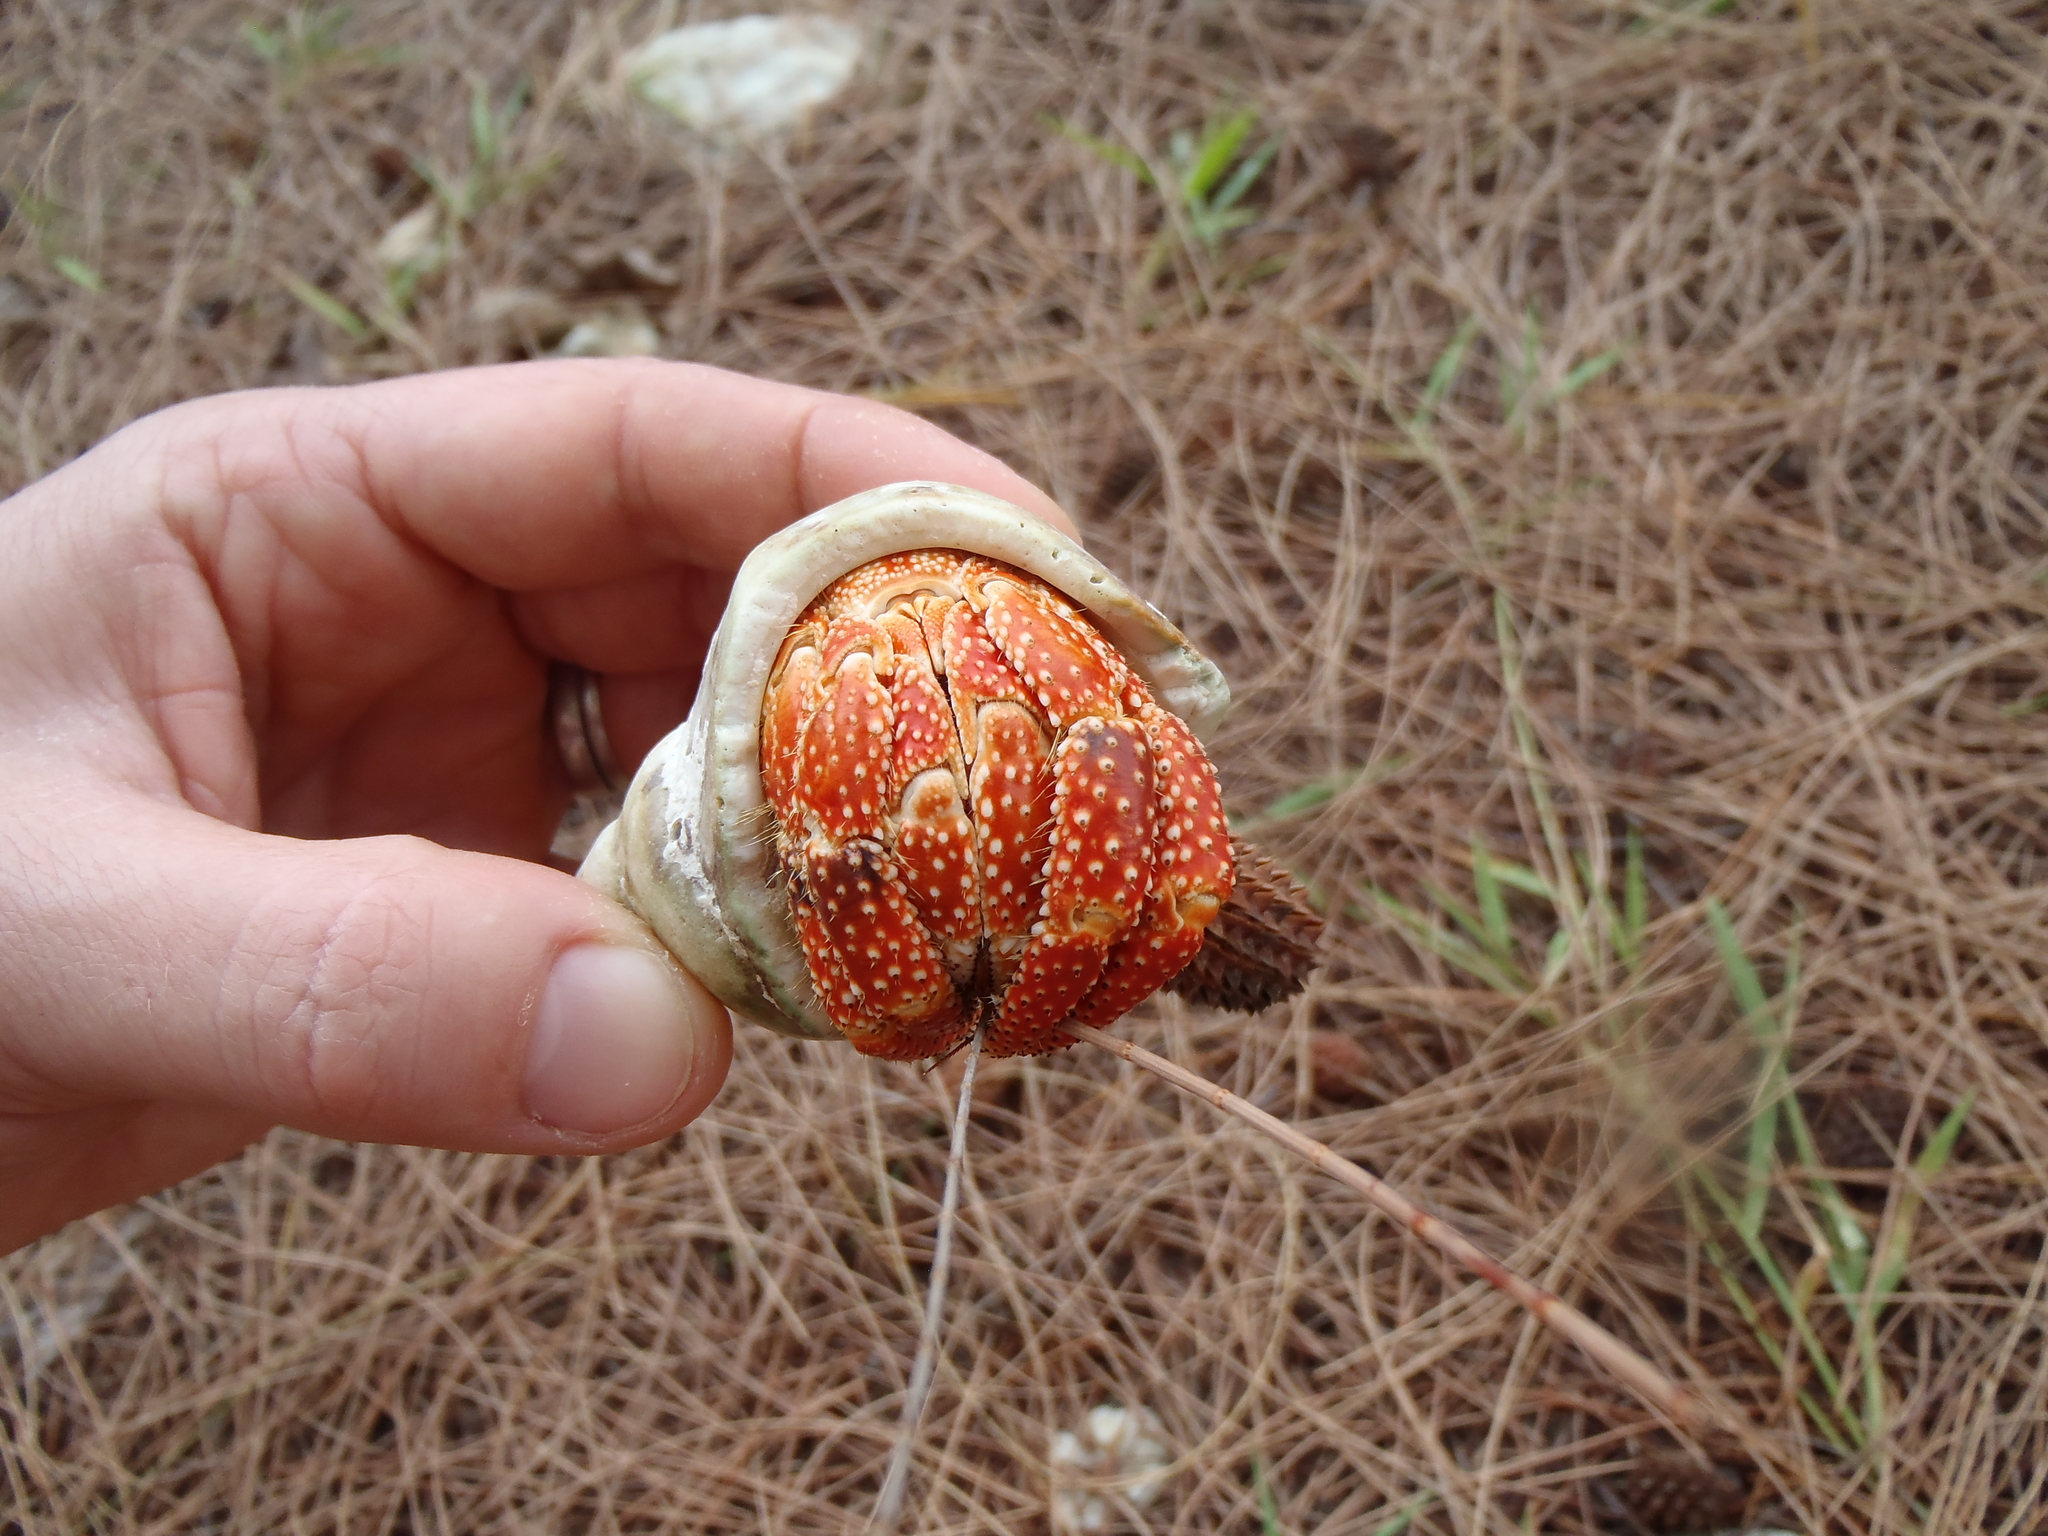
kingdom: Animalia
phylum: Arthropoda
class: Malacostraca
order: Decapoda
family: Coenobitidae
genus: Coenobita
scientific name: Coenobita perlatus
